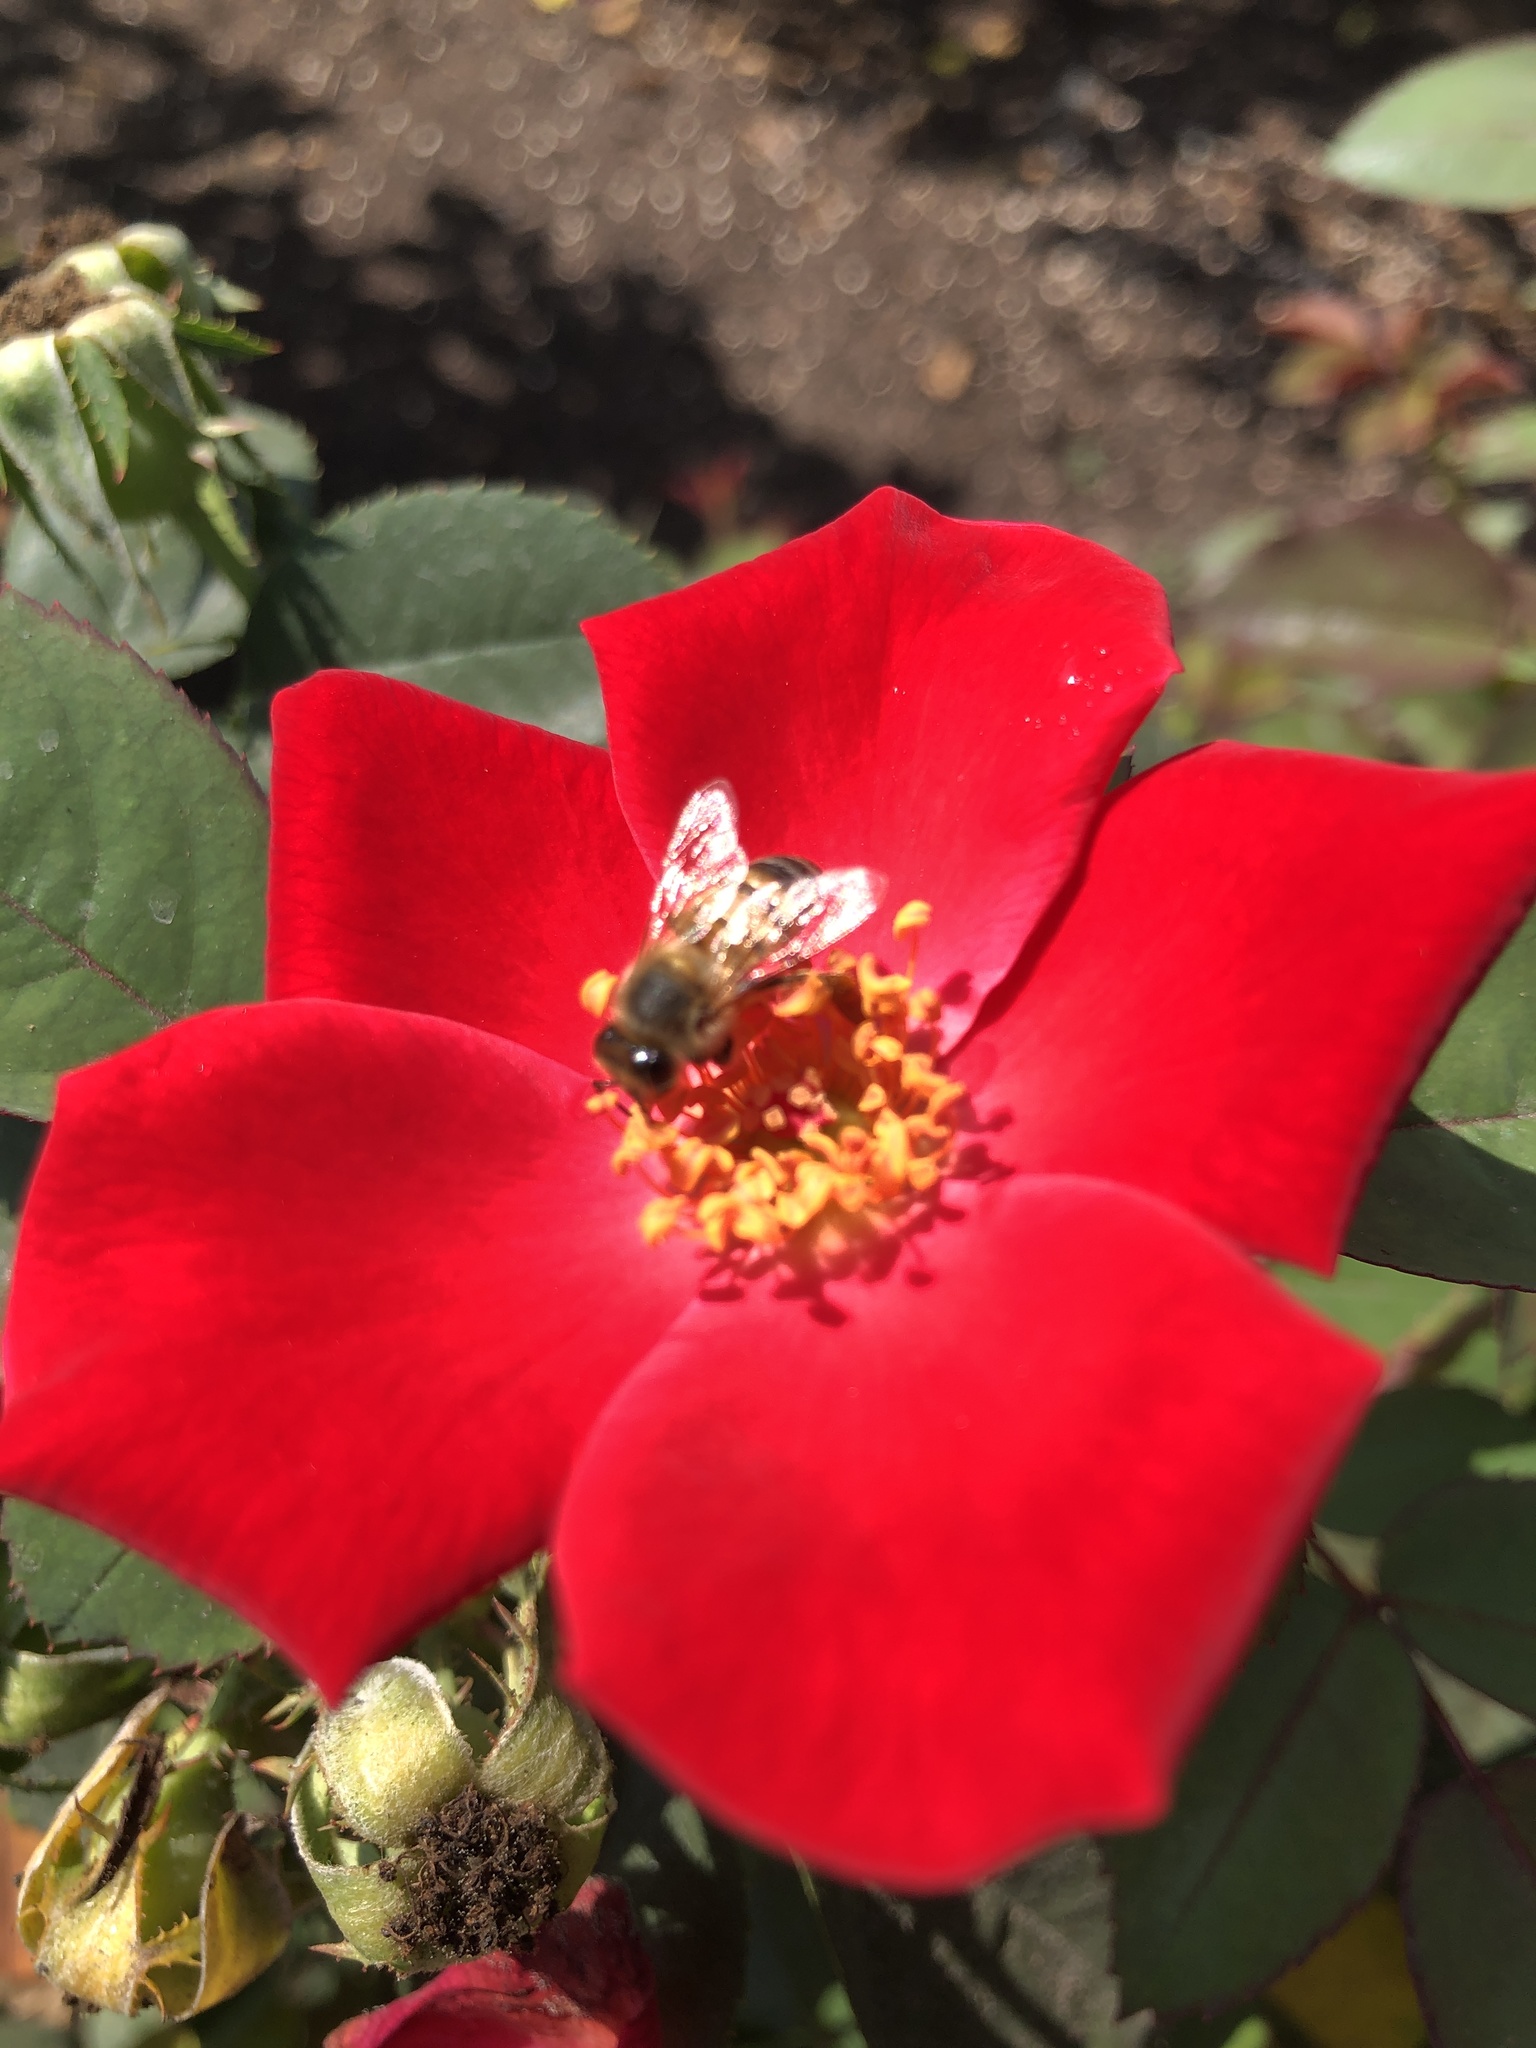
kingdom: Animalia
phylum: Arthropoda
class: Insecta
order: Hymenoptera
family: Apidae
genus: Apis
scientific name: Apis mellifera
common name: Honey bee
